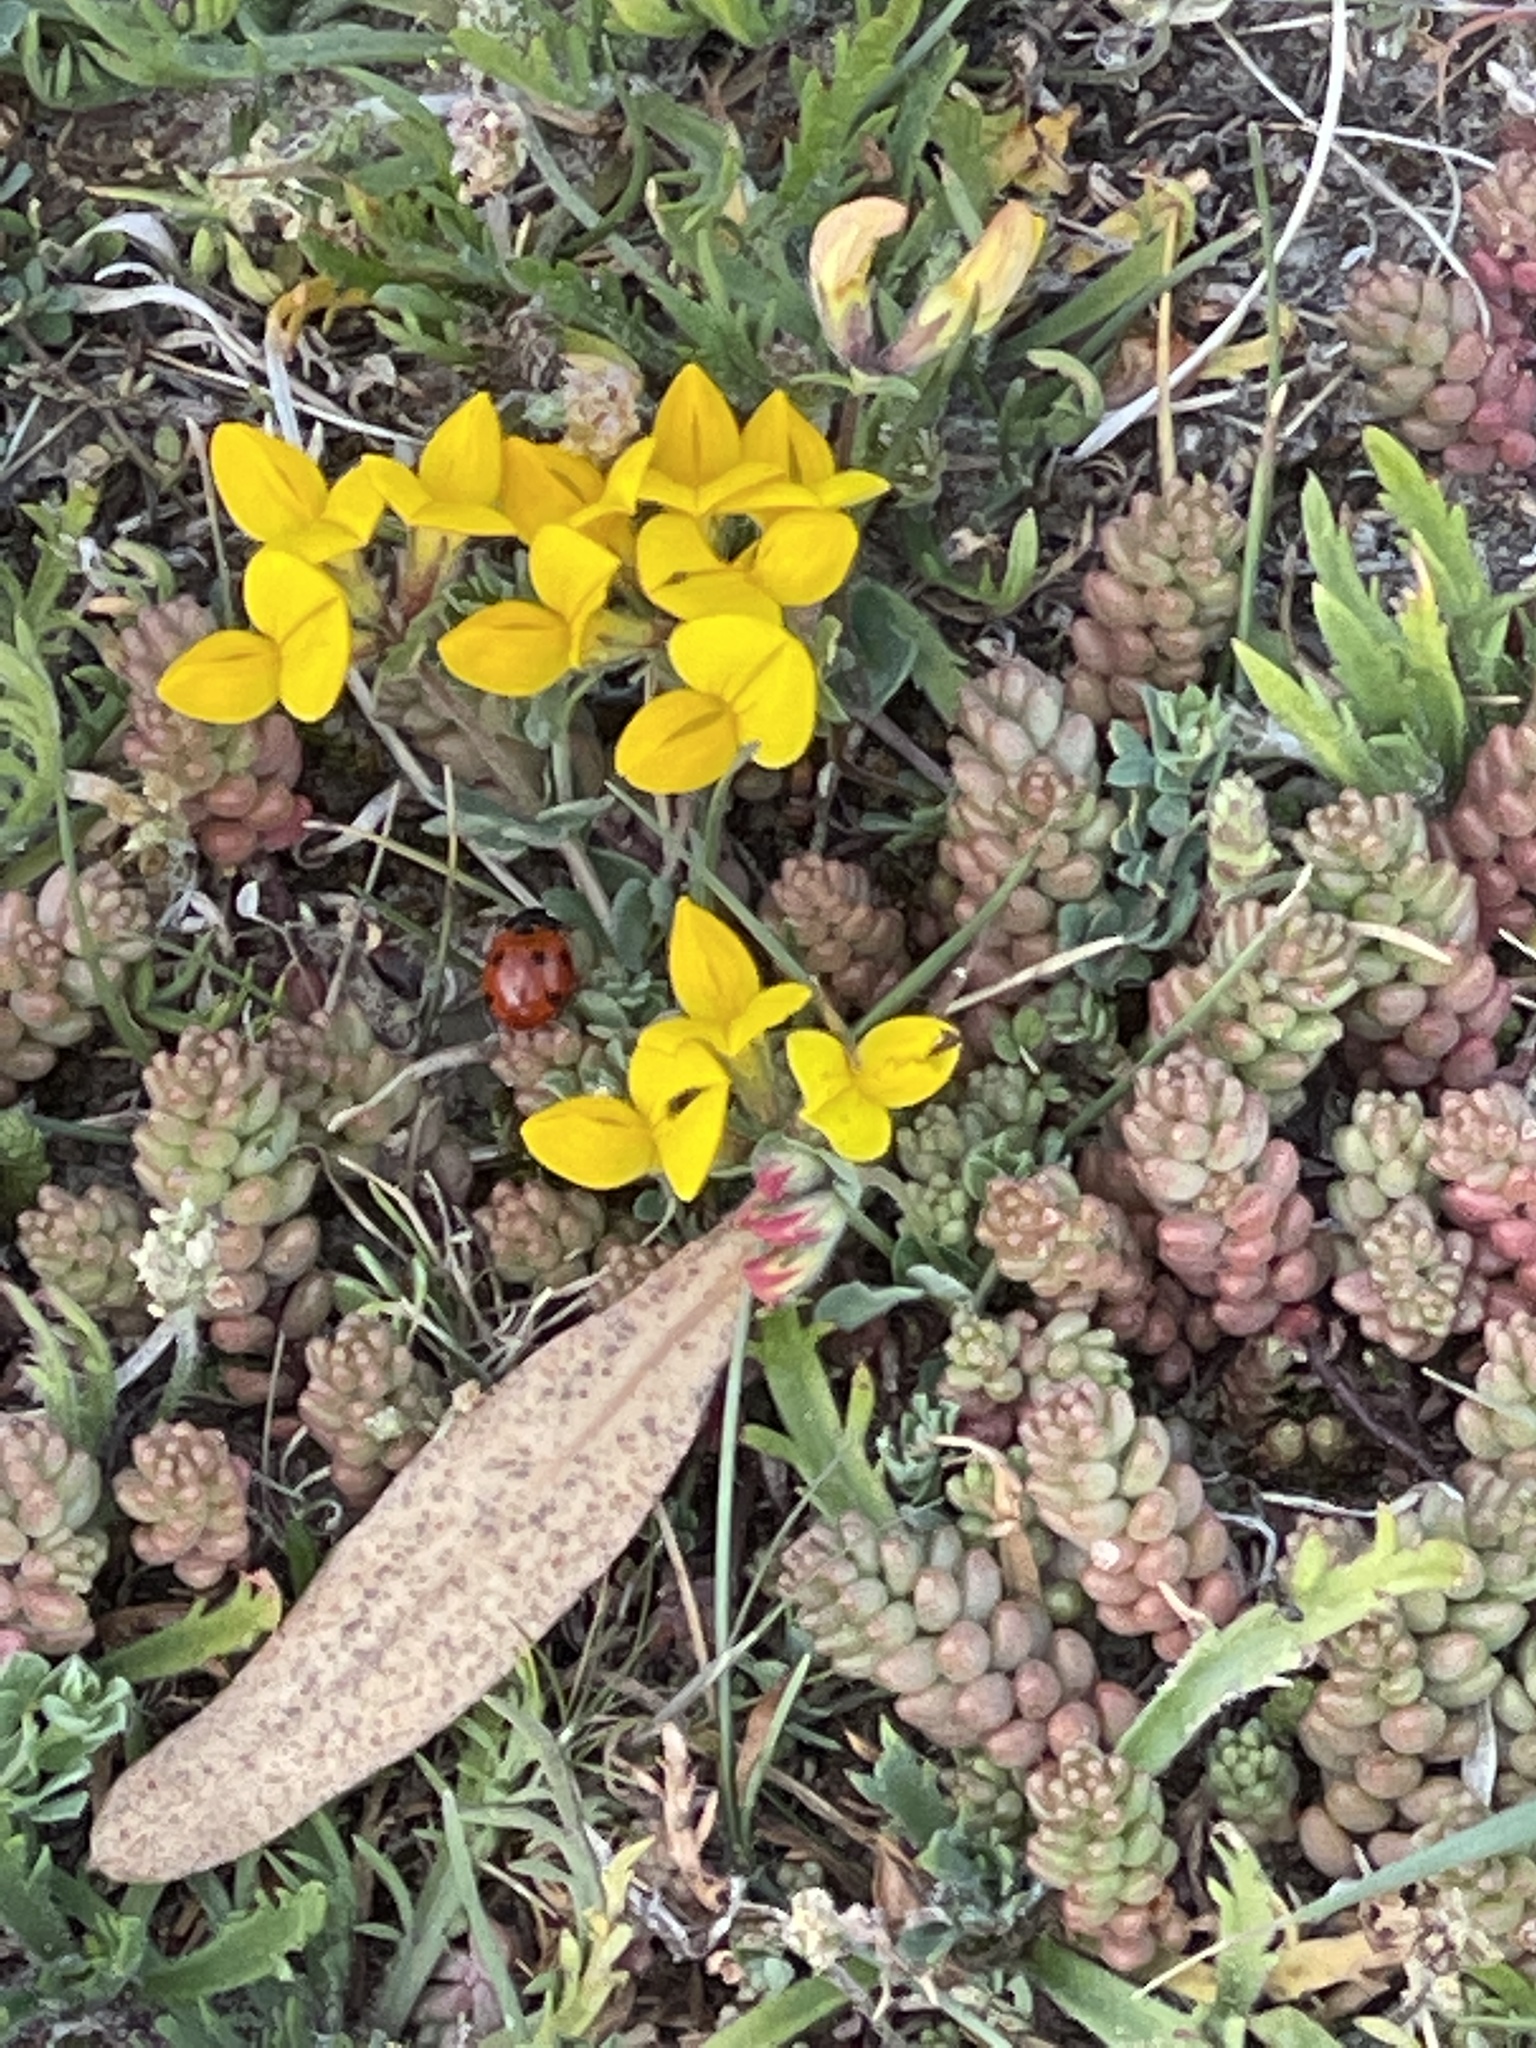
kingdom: Plantae
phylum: Tracheophyta
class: Magnoliopsida
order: Fabales
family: Fabaceae
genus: Lotus
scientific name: Lotus corniculatus
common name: Common bird's-foot-trefoil
